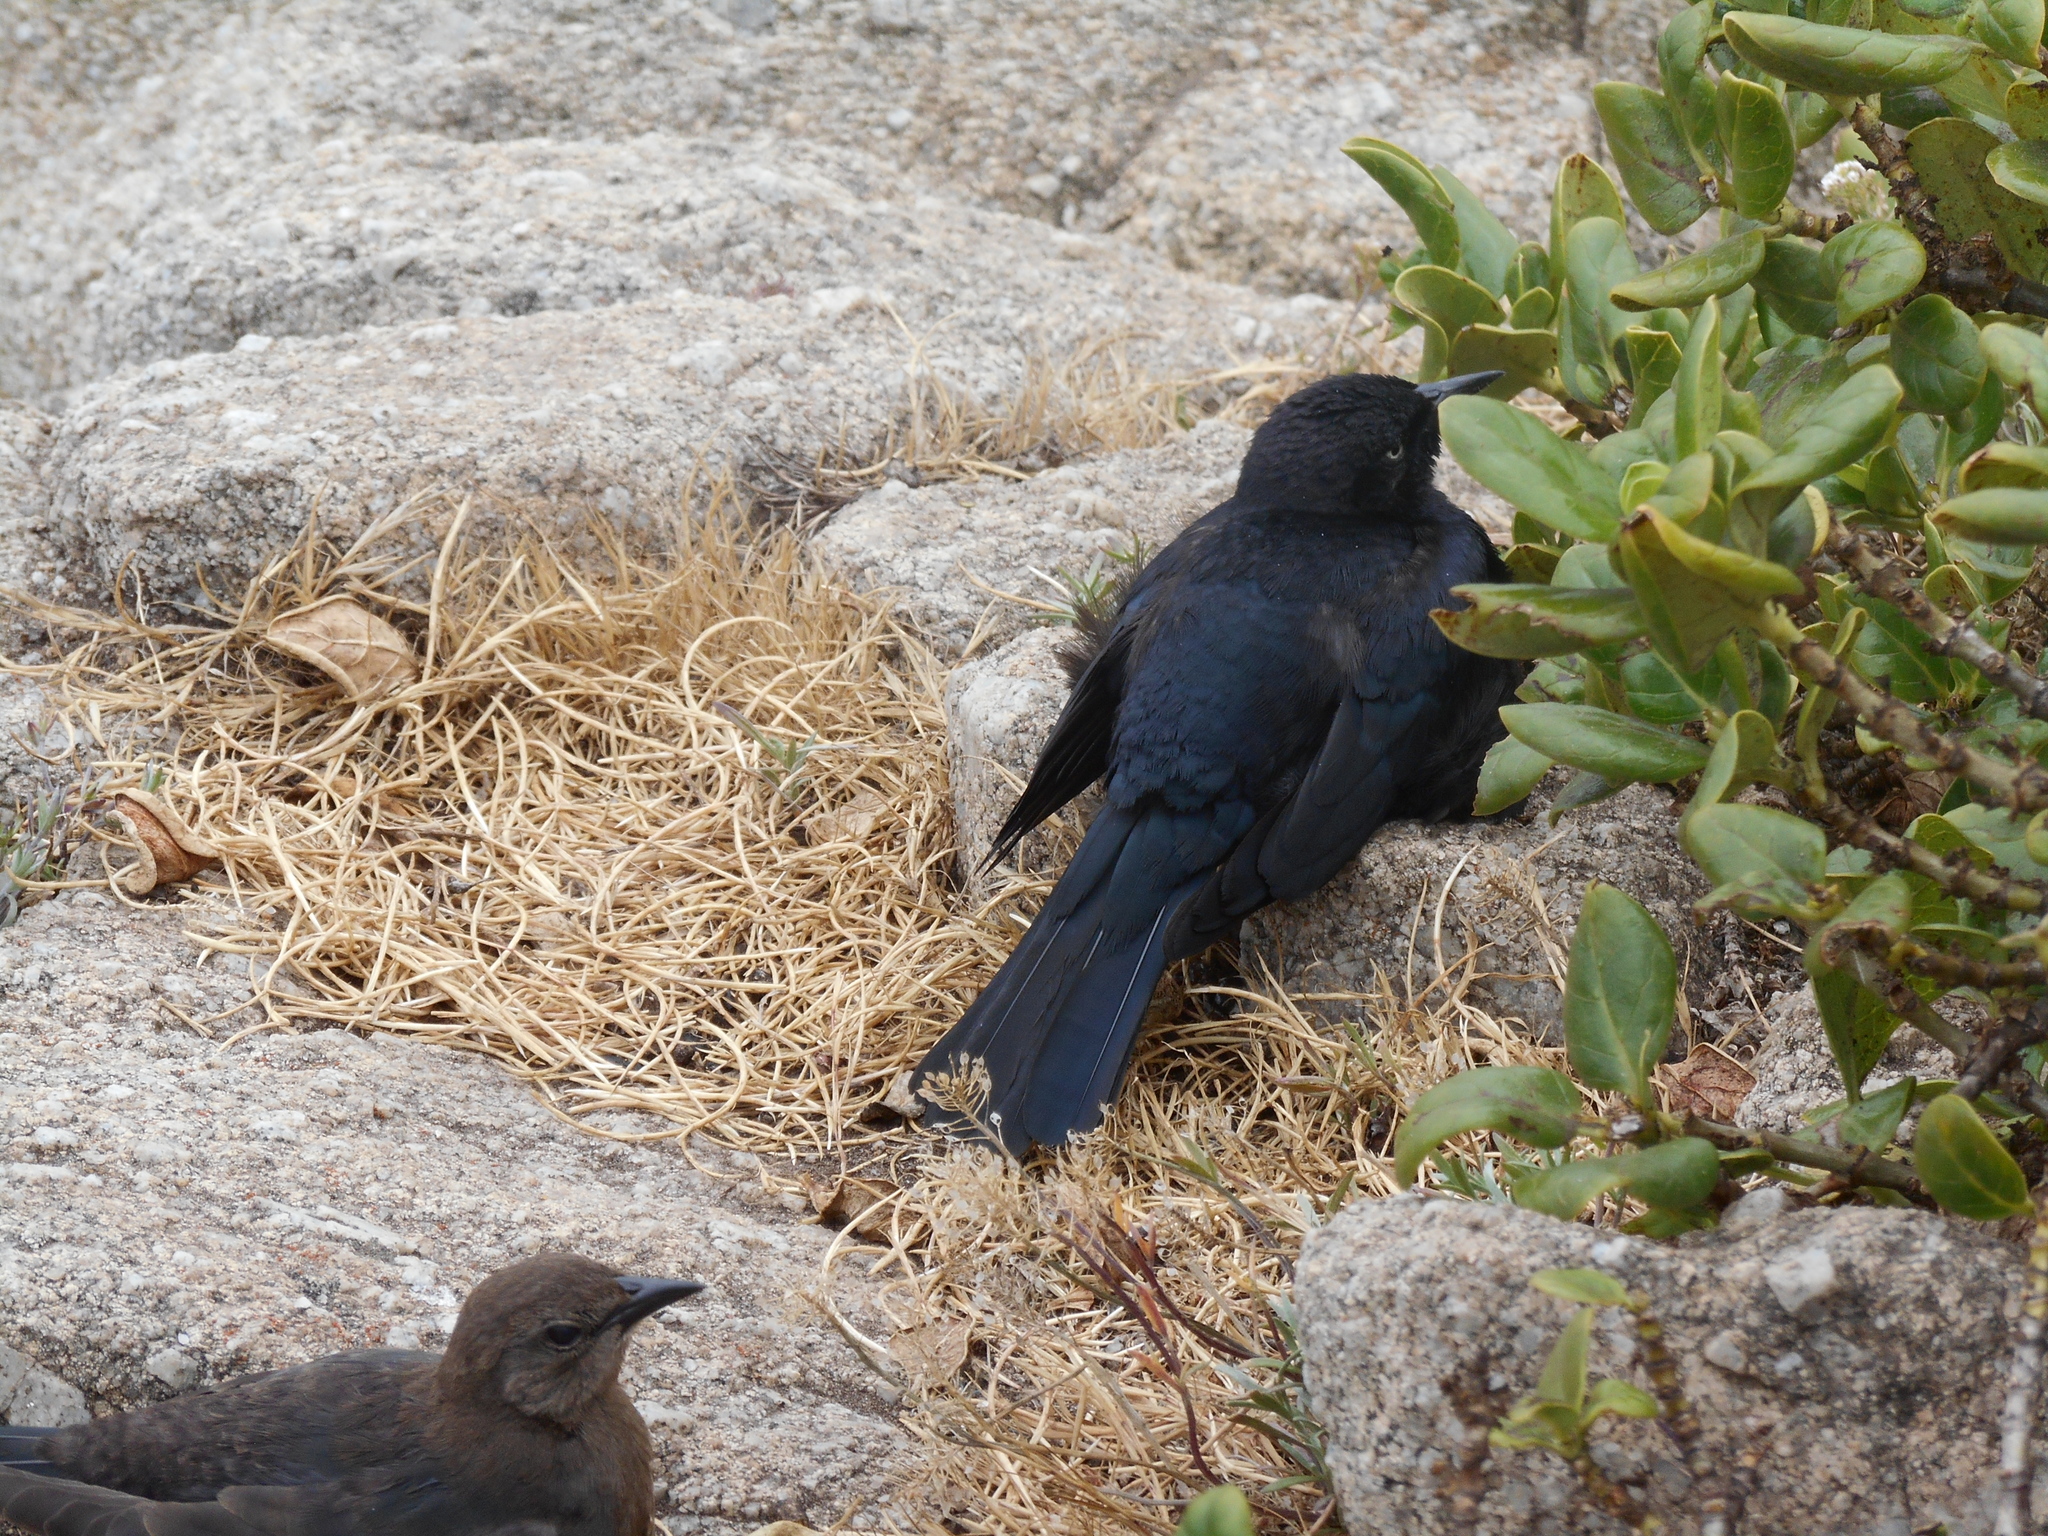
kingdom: Animalia
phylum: Chordata
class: Aves
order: Passeriformes
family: Icteridae
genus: Euphagus
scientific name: Euphagus cyanocephalus
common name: Brewer's blackbird
